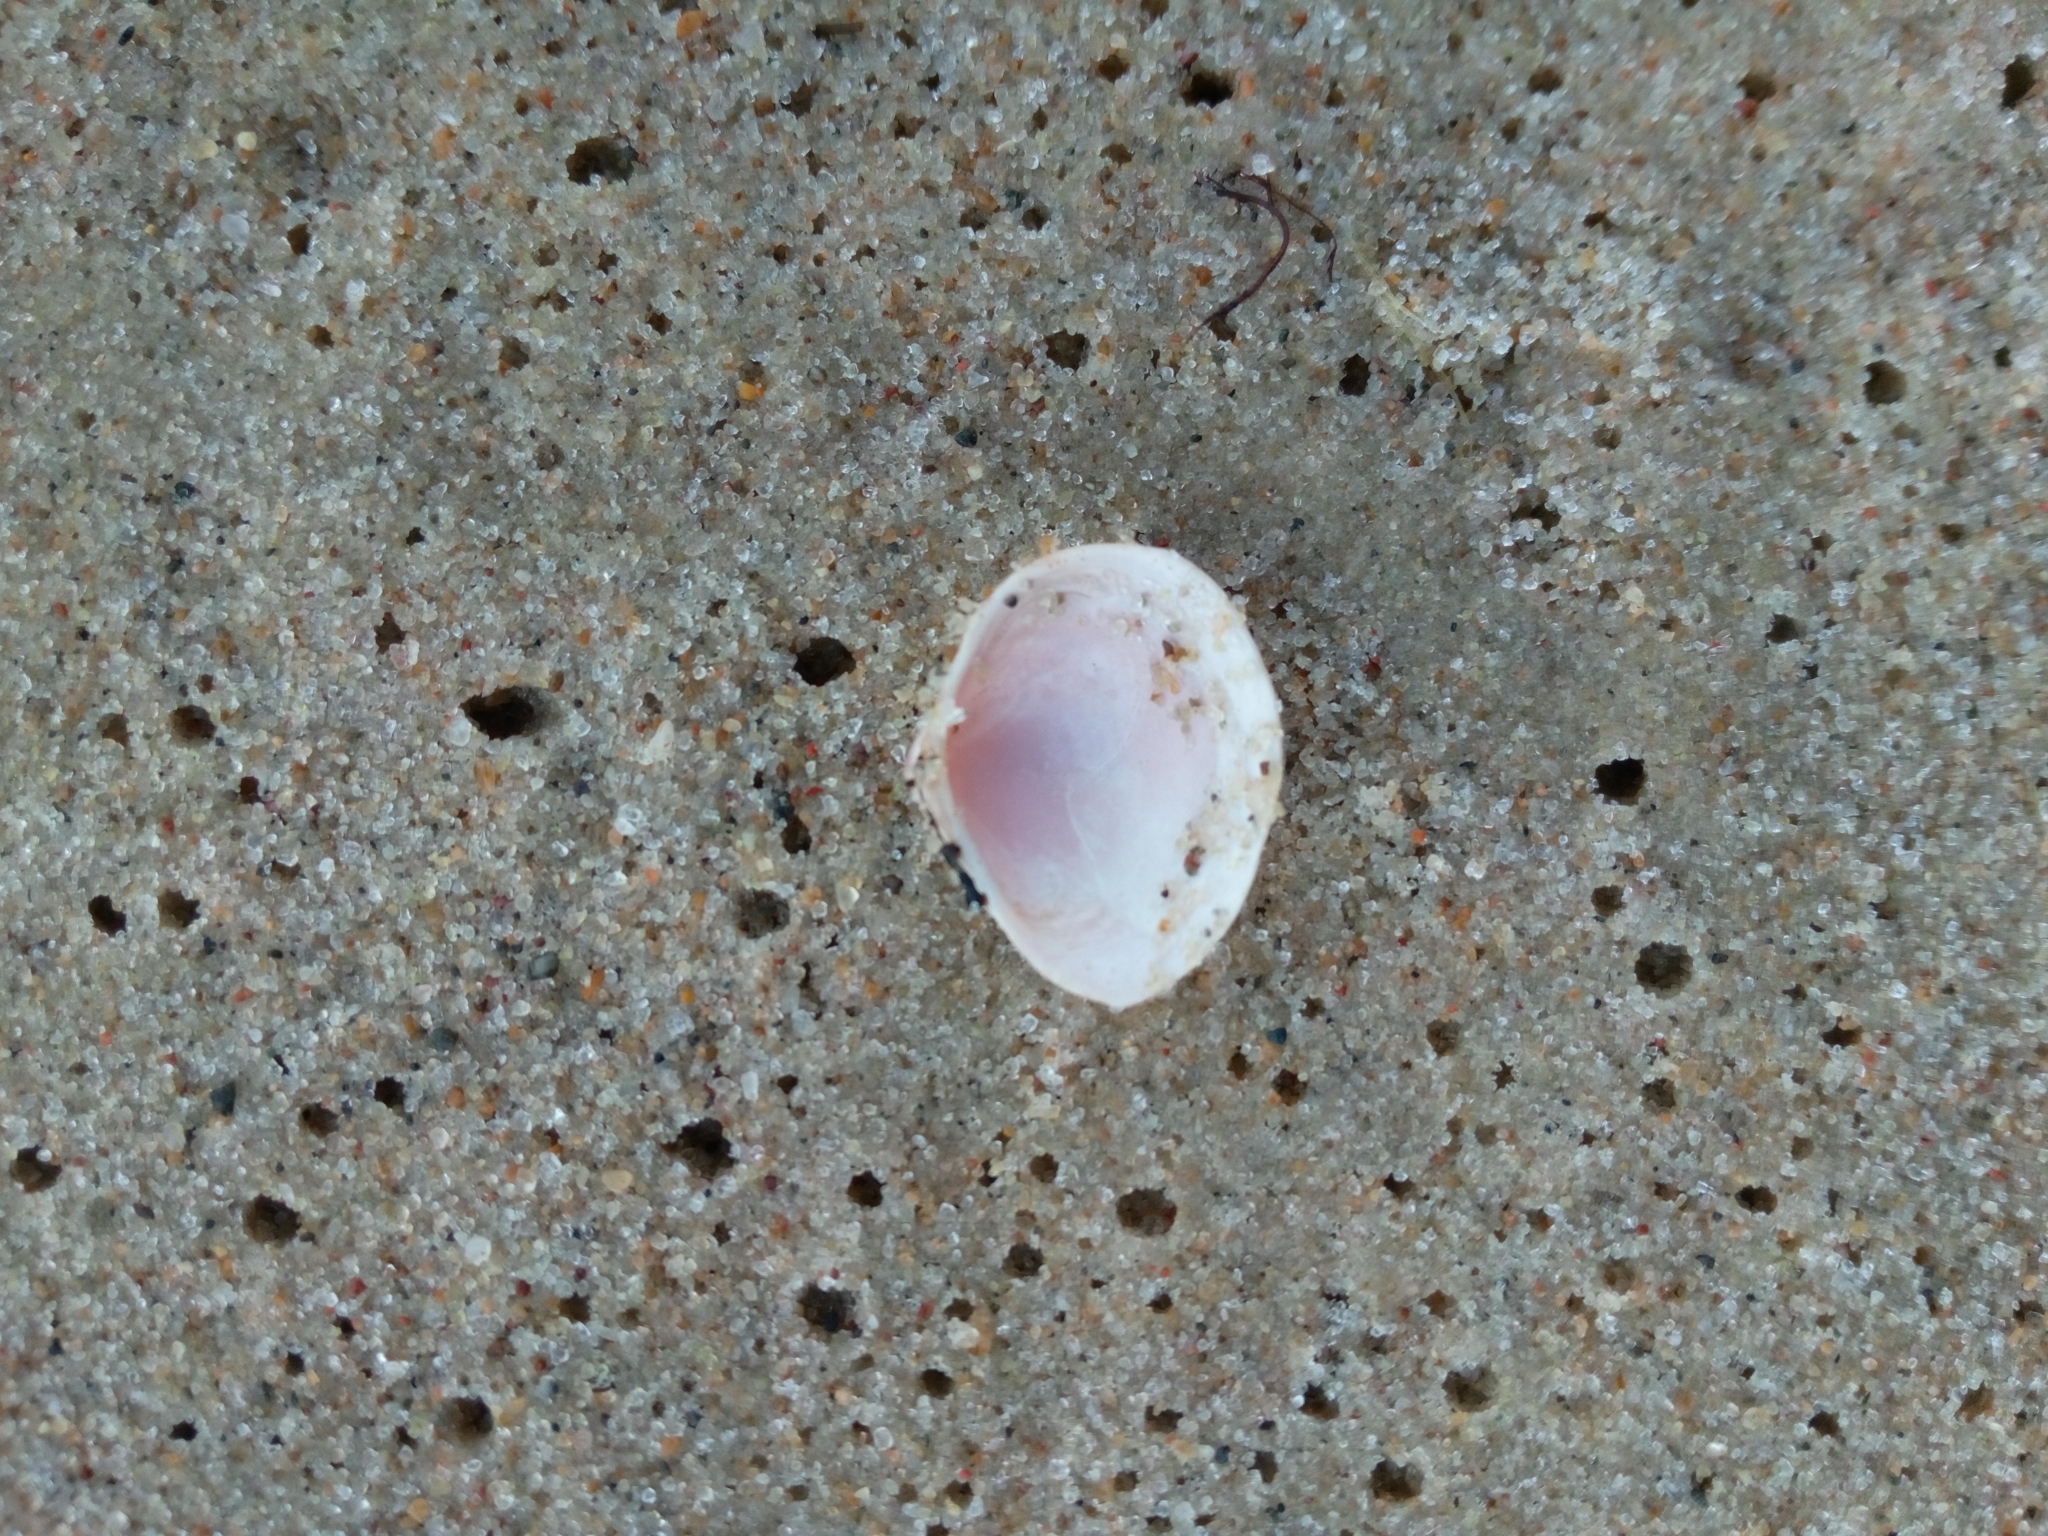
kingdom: Animalia
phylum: Mollusca
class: Bivalvia
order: Cardiida
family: Tellinidae
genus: Macoma
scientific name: Macoma balthica
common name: Baltic tellin
